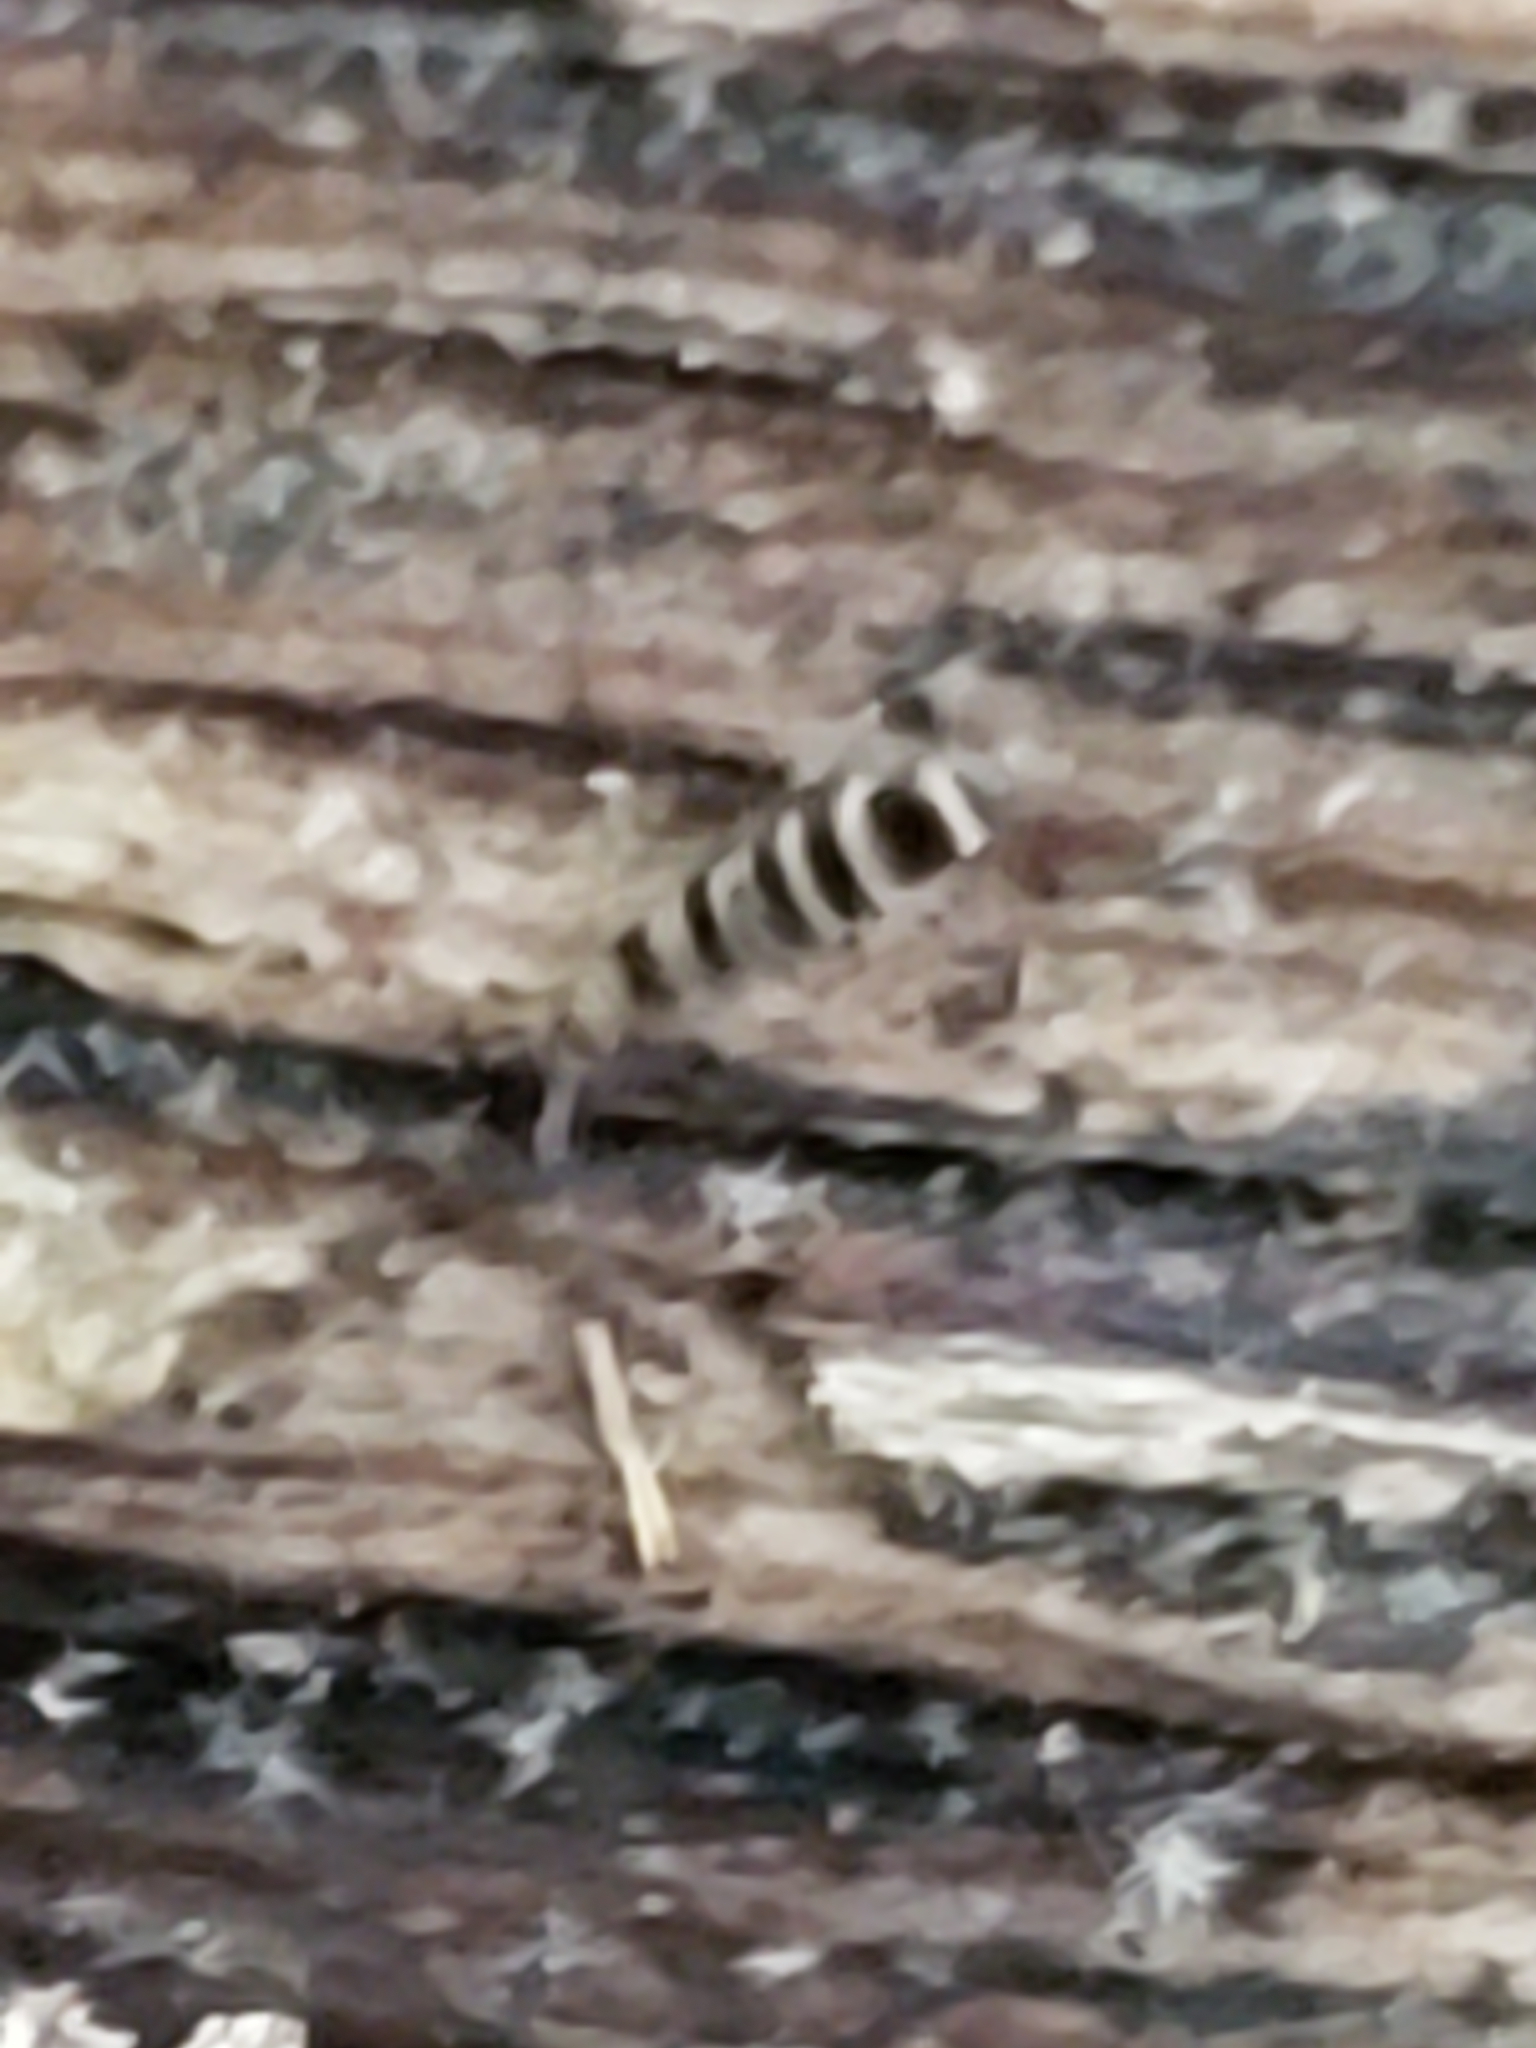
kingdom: Animalia
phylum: Arthropoda
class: Collembola
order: Entomobryomorpha
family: Orchesellidae
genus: Orchesella
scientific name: Orchesella hexfasciata
